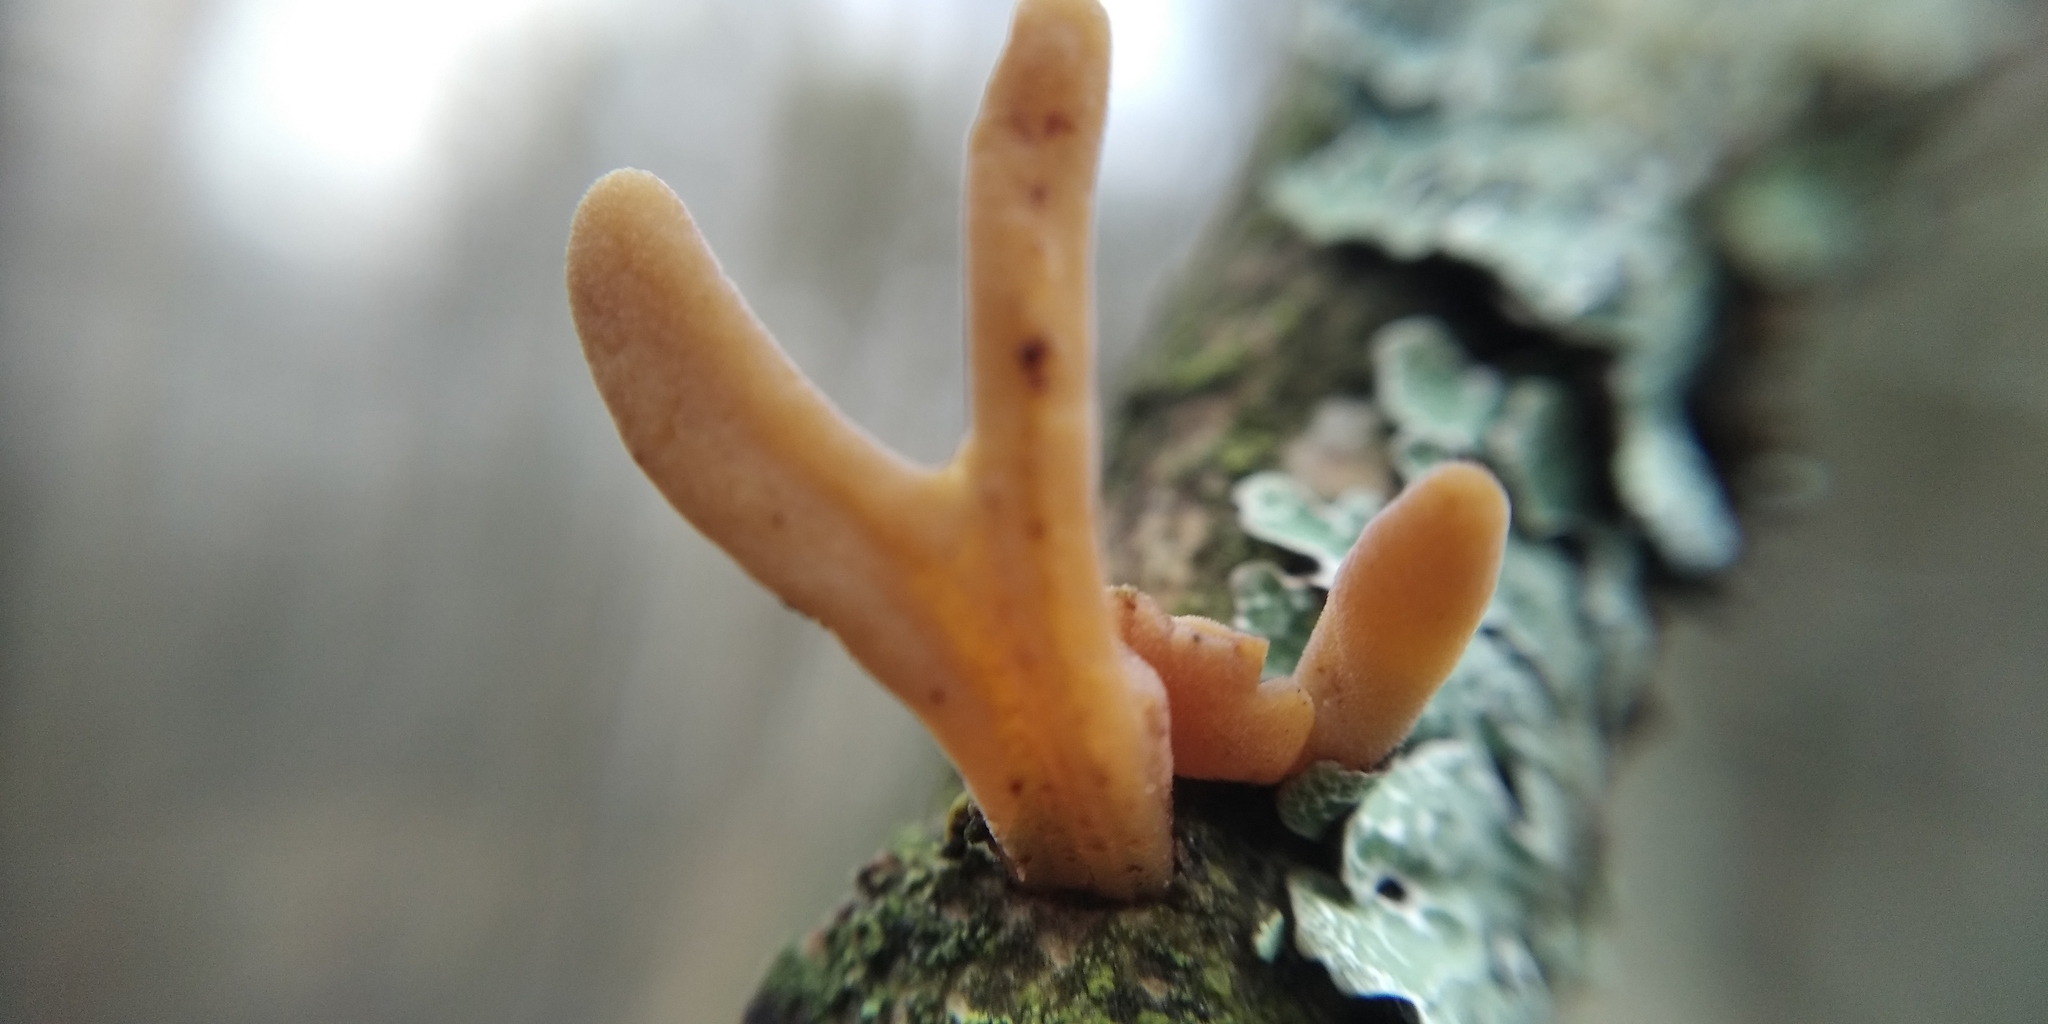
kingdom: Fungi
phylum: Basidiomycota
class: Agaricomycetes
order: Agaricales
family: Typhulaceae
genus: Typhula
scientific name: Typhula fistulosa
